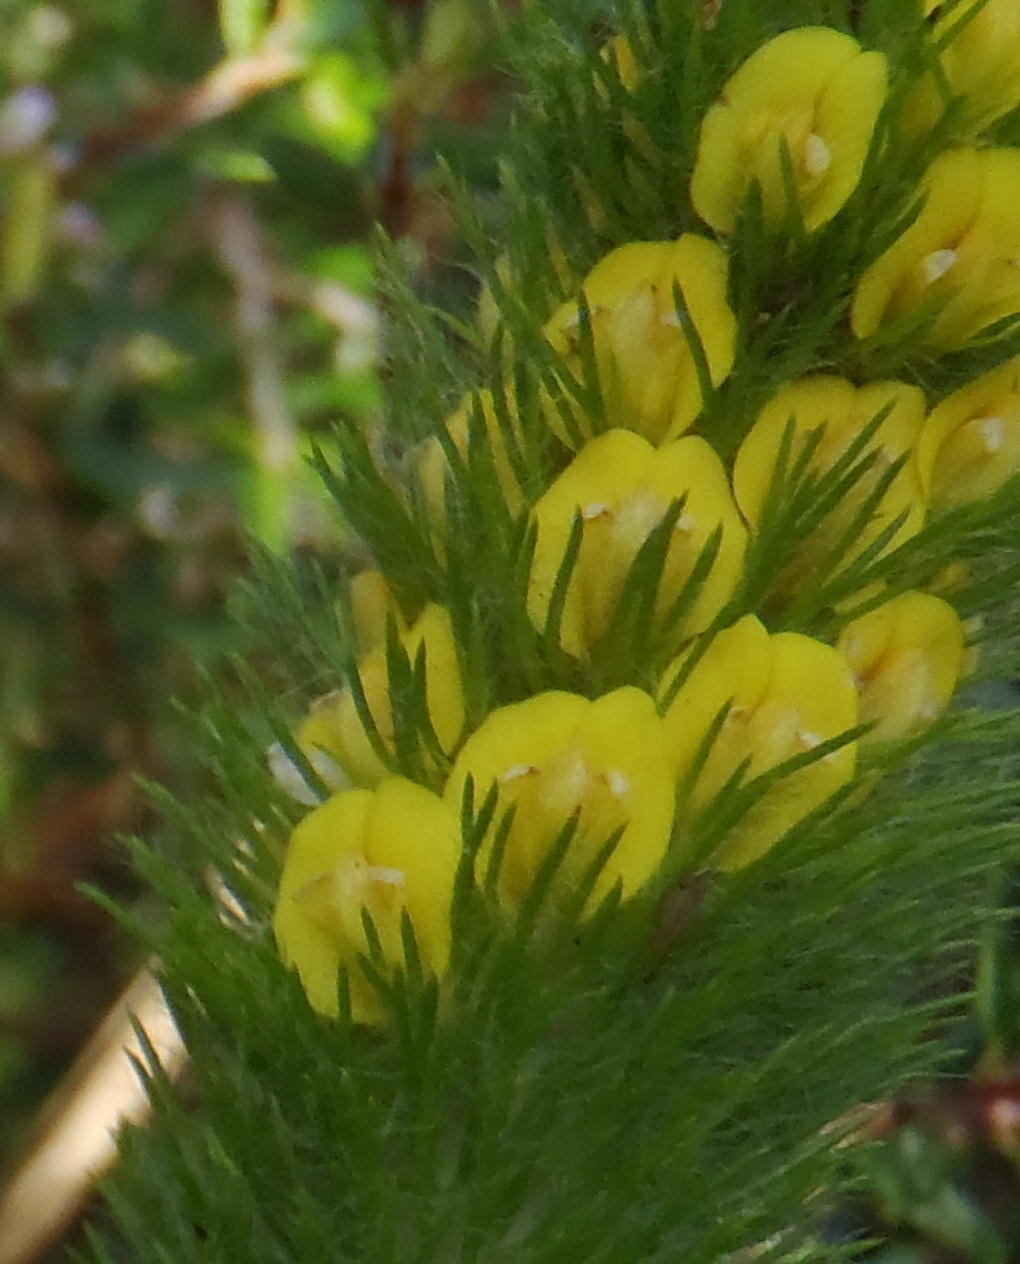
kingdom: Plantae
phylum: Tracheophyta
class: Magnoliopsida
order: Fabales
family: Fabaceae
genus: Aspalathus
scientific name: Aspalathus alopecurus
